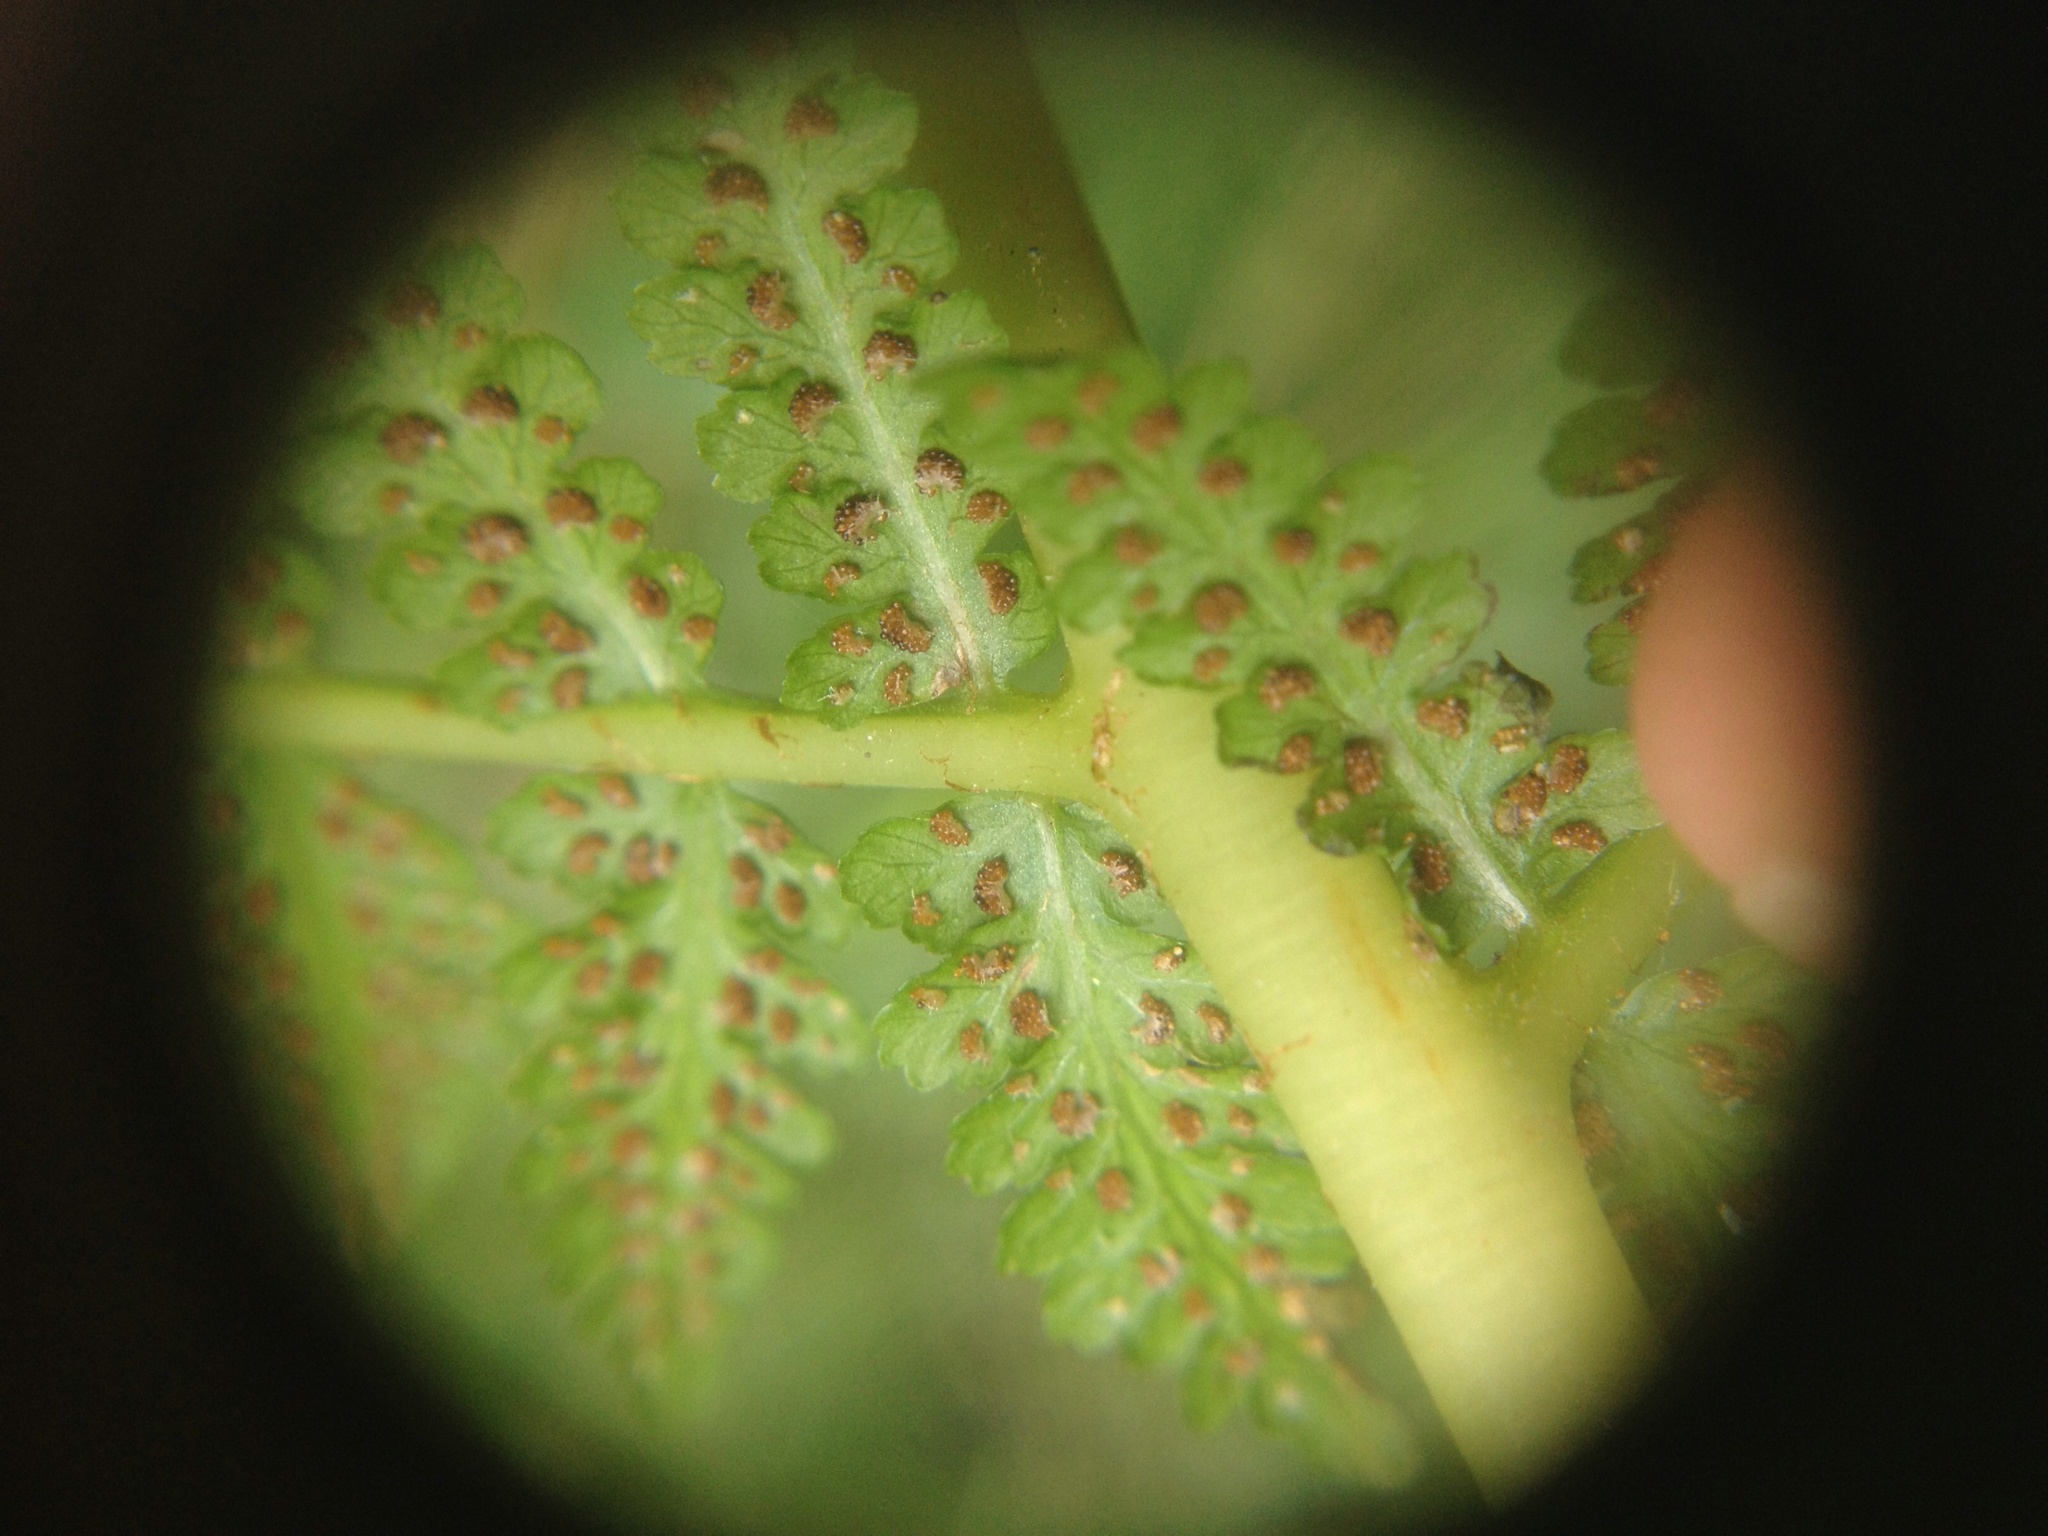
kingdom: Plantae
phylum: Tracheophyta
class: Polypodiopsida
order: Polypodiales
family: Athyriaceae
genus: Athyrium
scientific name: Athyrium filix-femina
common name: Lady fern
